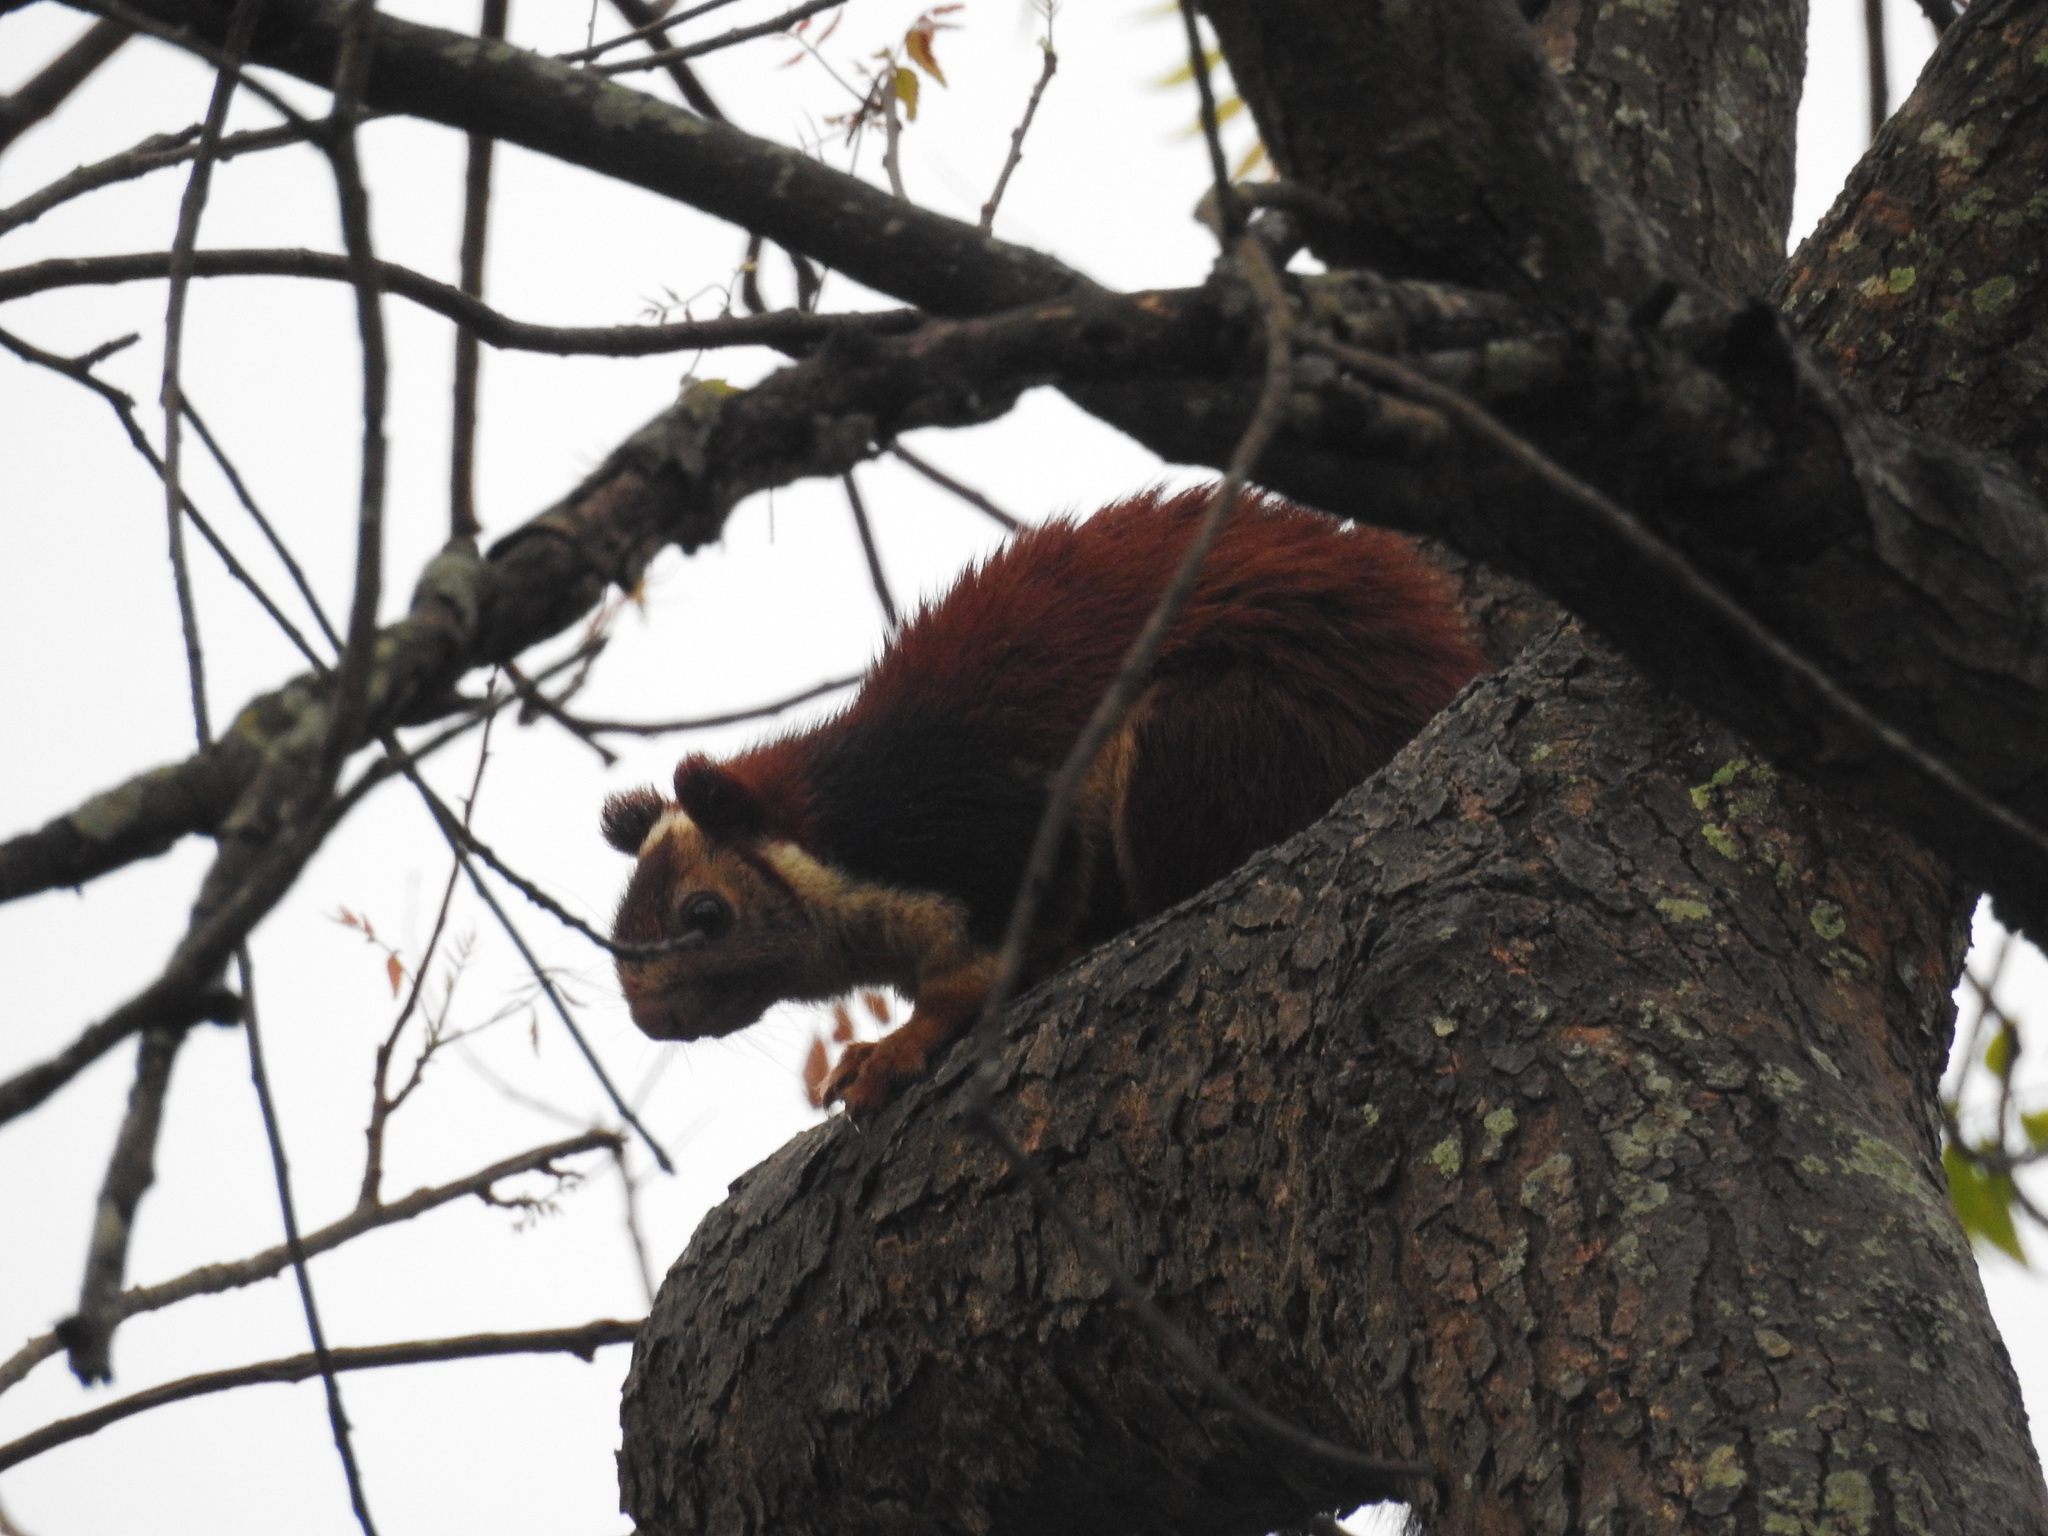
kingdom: Animalia
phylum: Chordata
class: Mammalia
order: Rodentia
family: Sciuridae
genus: Ratufa
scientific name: Ratufa indica
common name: Indian giant squirrel
